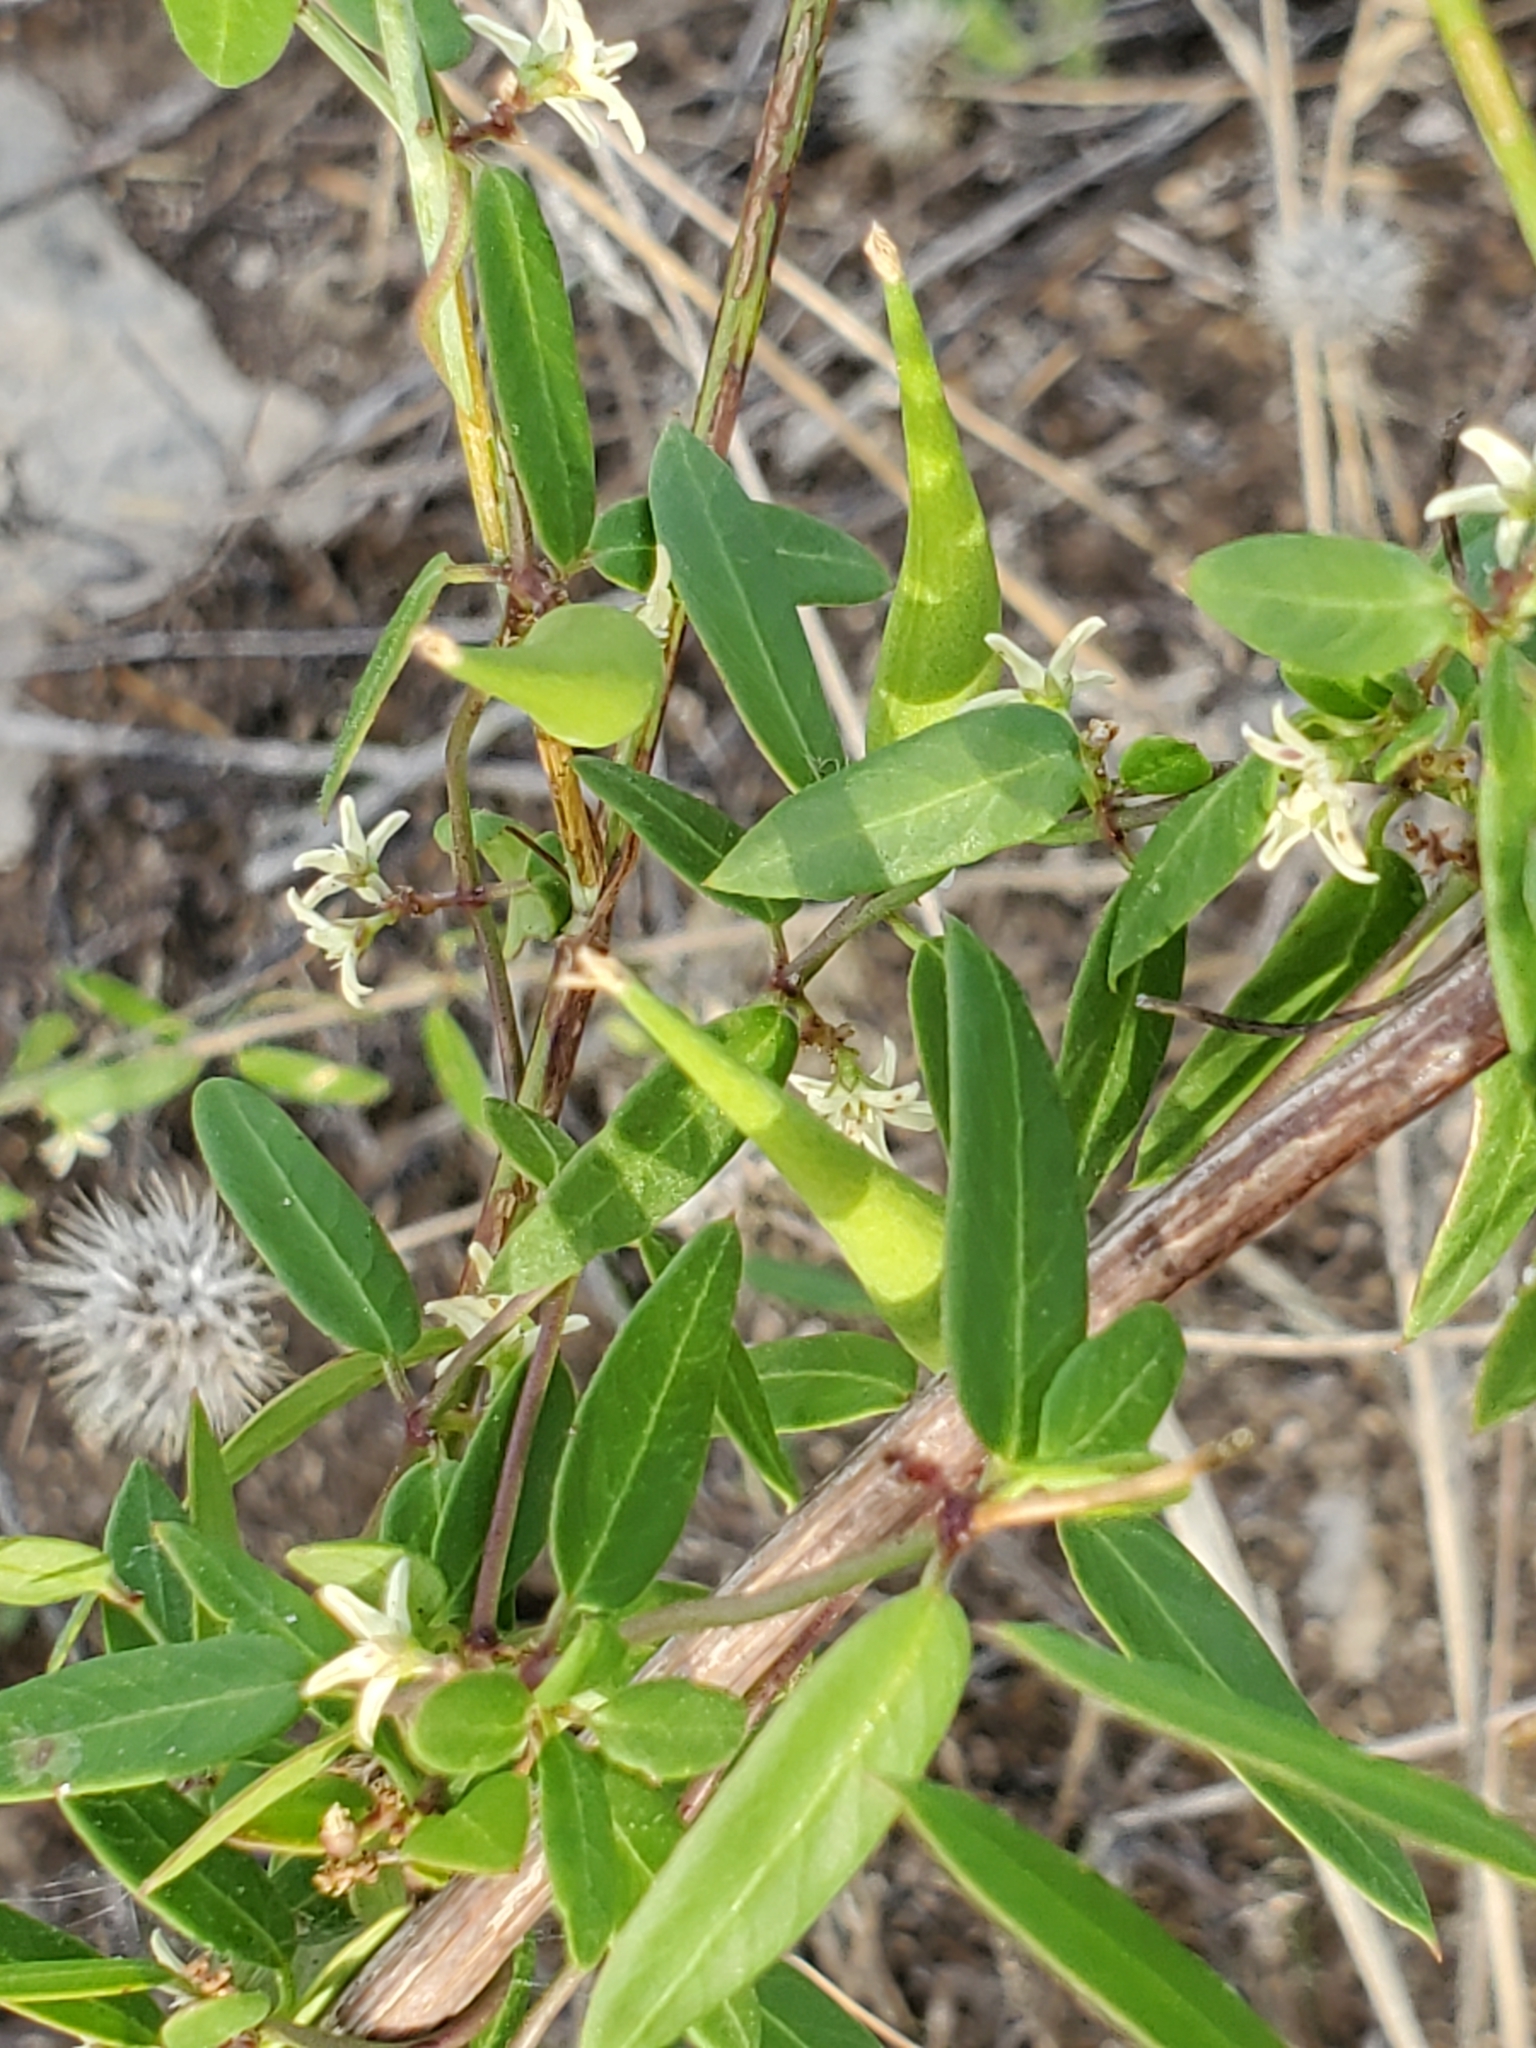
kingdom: Plantae
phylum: Tracheophyta
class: Magnoliopsida
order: Gentianales
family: Apocynaceae
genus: Metastelma
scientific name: Metastelma palmeri
